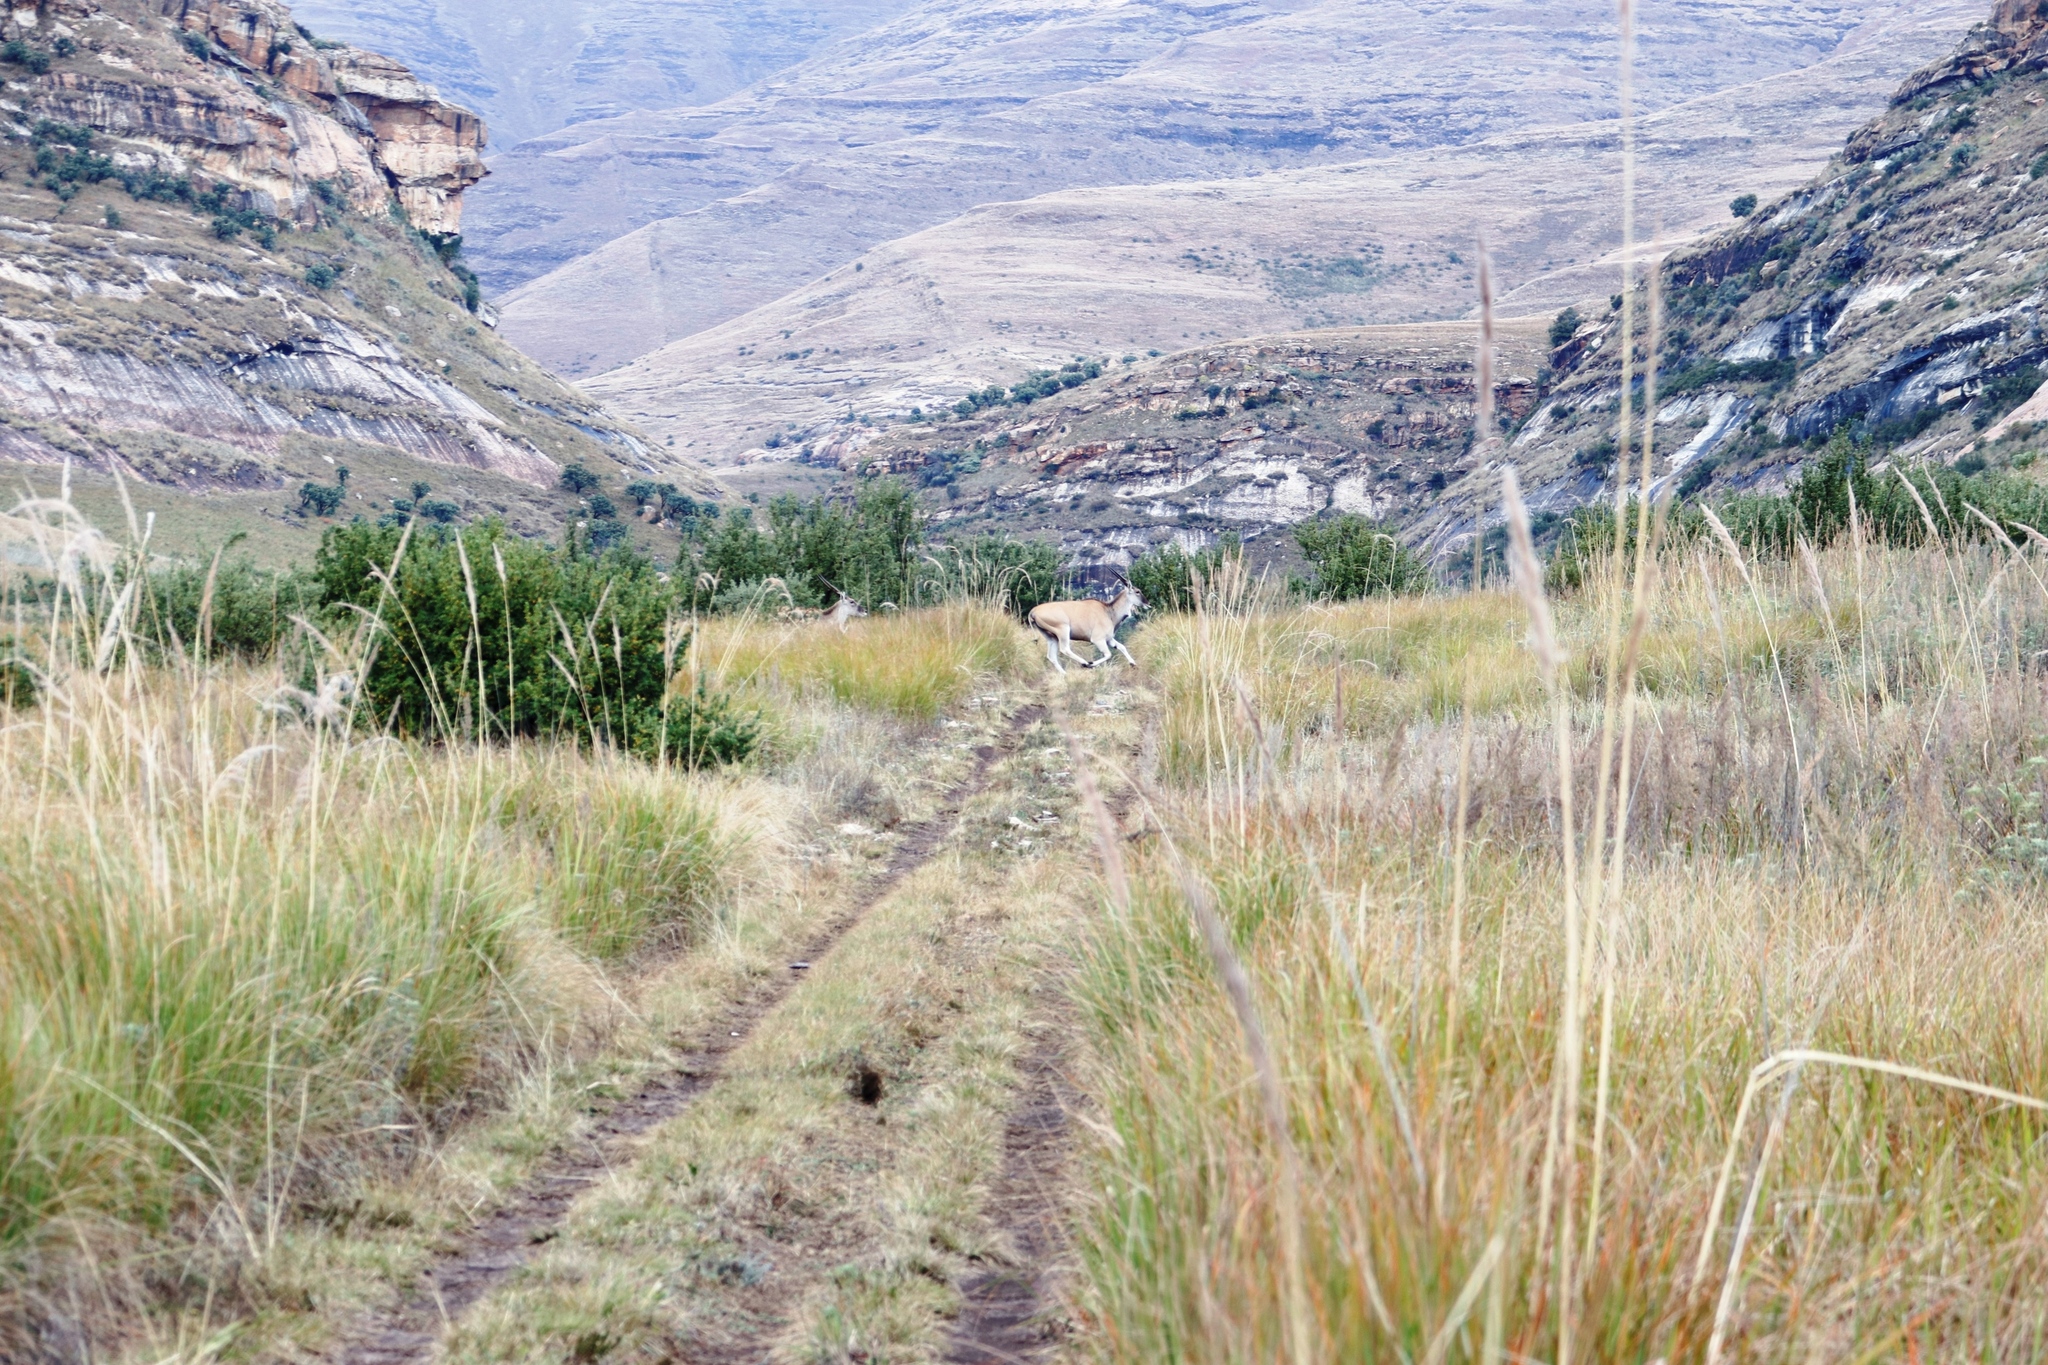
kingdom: Animalia
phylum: Chordata
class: Mammalia
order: Artiodactyla
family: Bovidae
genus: Taurotragus
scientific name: Taurotragus oryx
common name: Common eland
